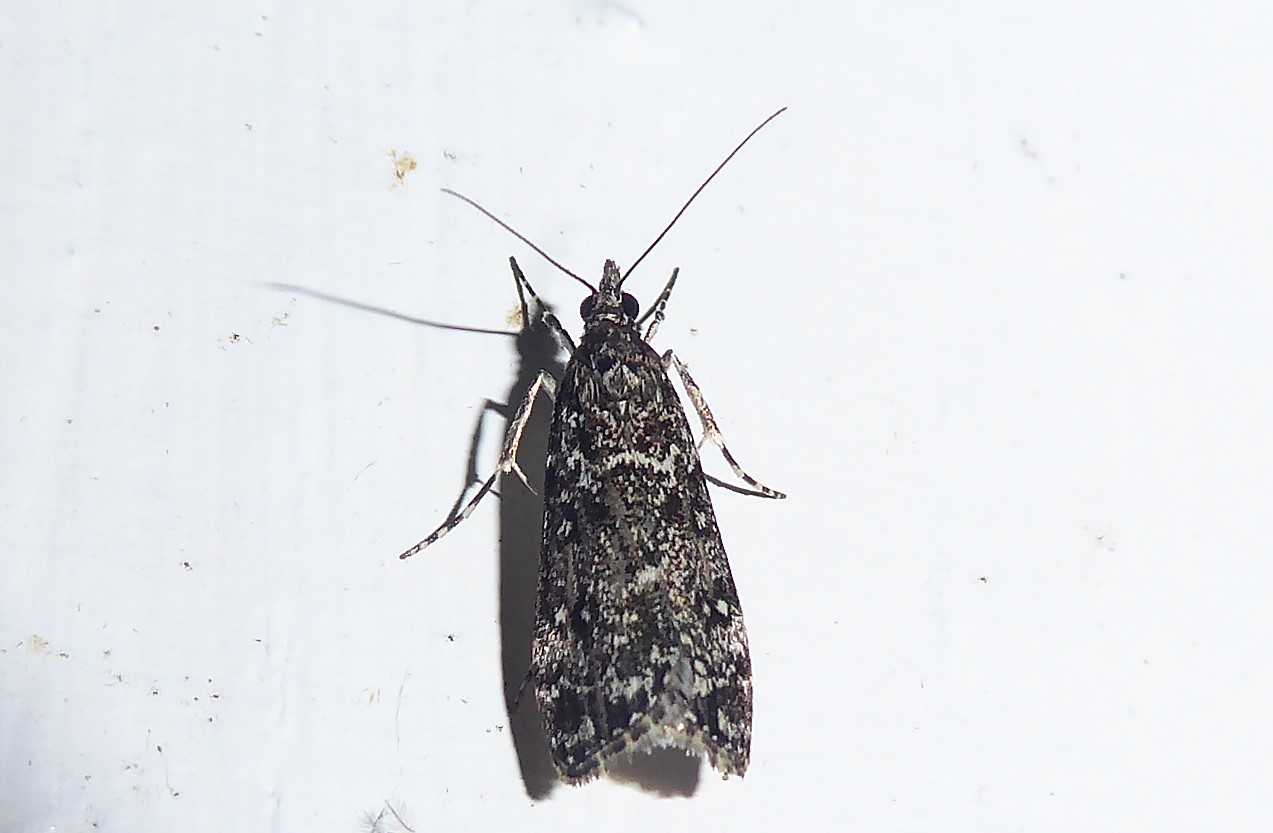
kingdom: Animalia
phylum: Arthropoda
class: Insecta
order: Lepidoptera
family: Crambidae
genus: Eudonia
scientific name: Eudonia philerga
